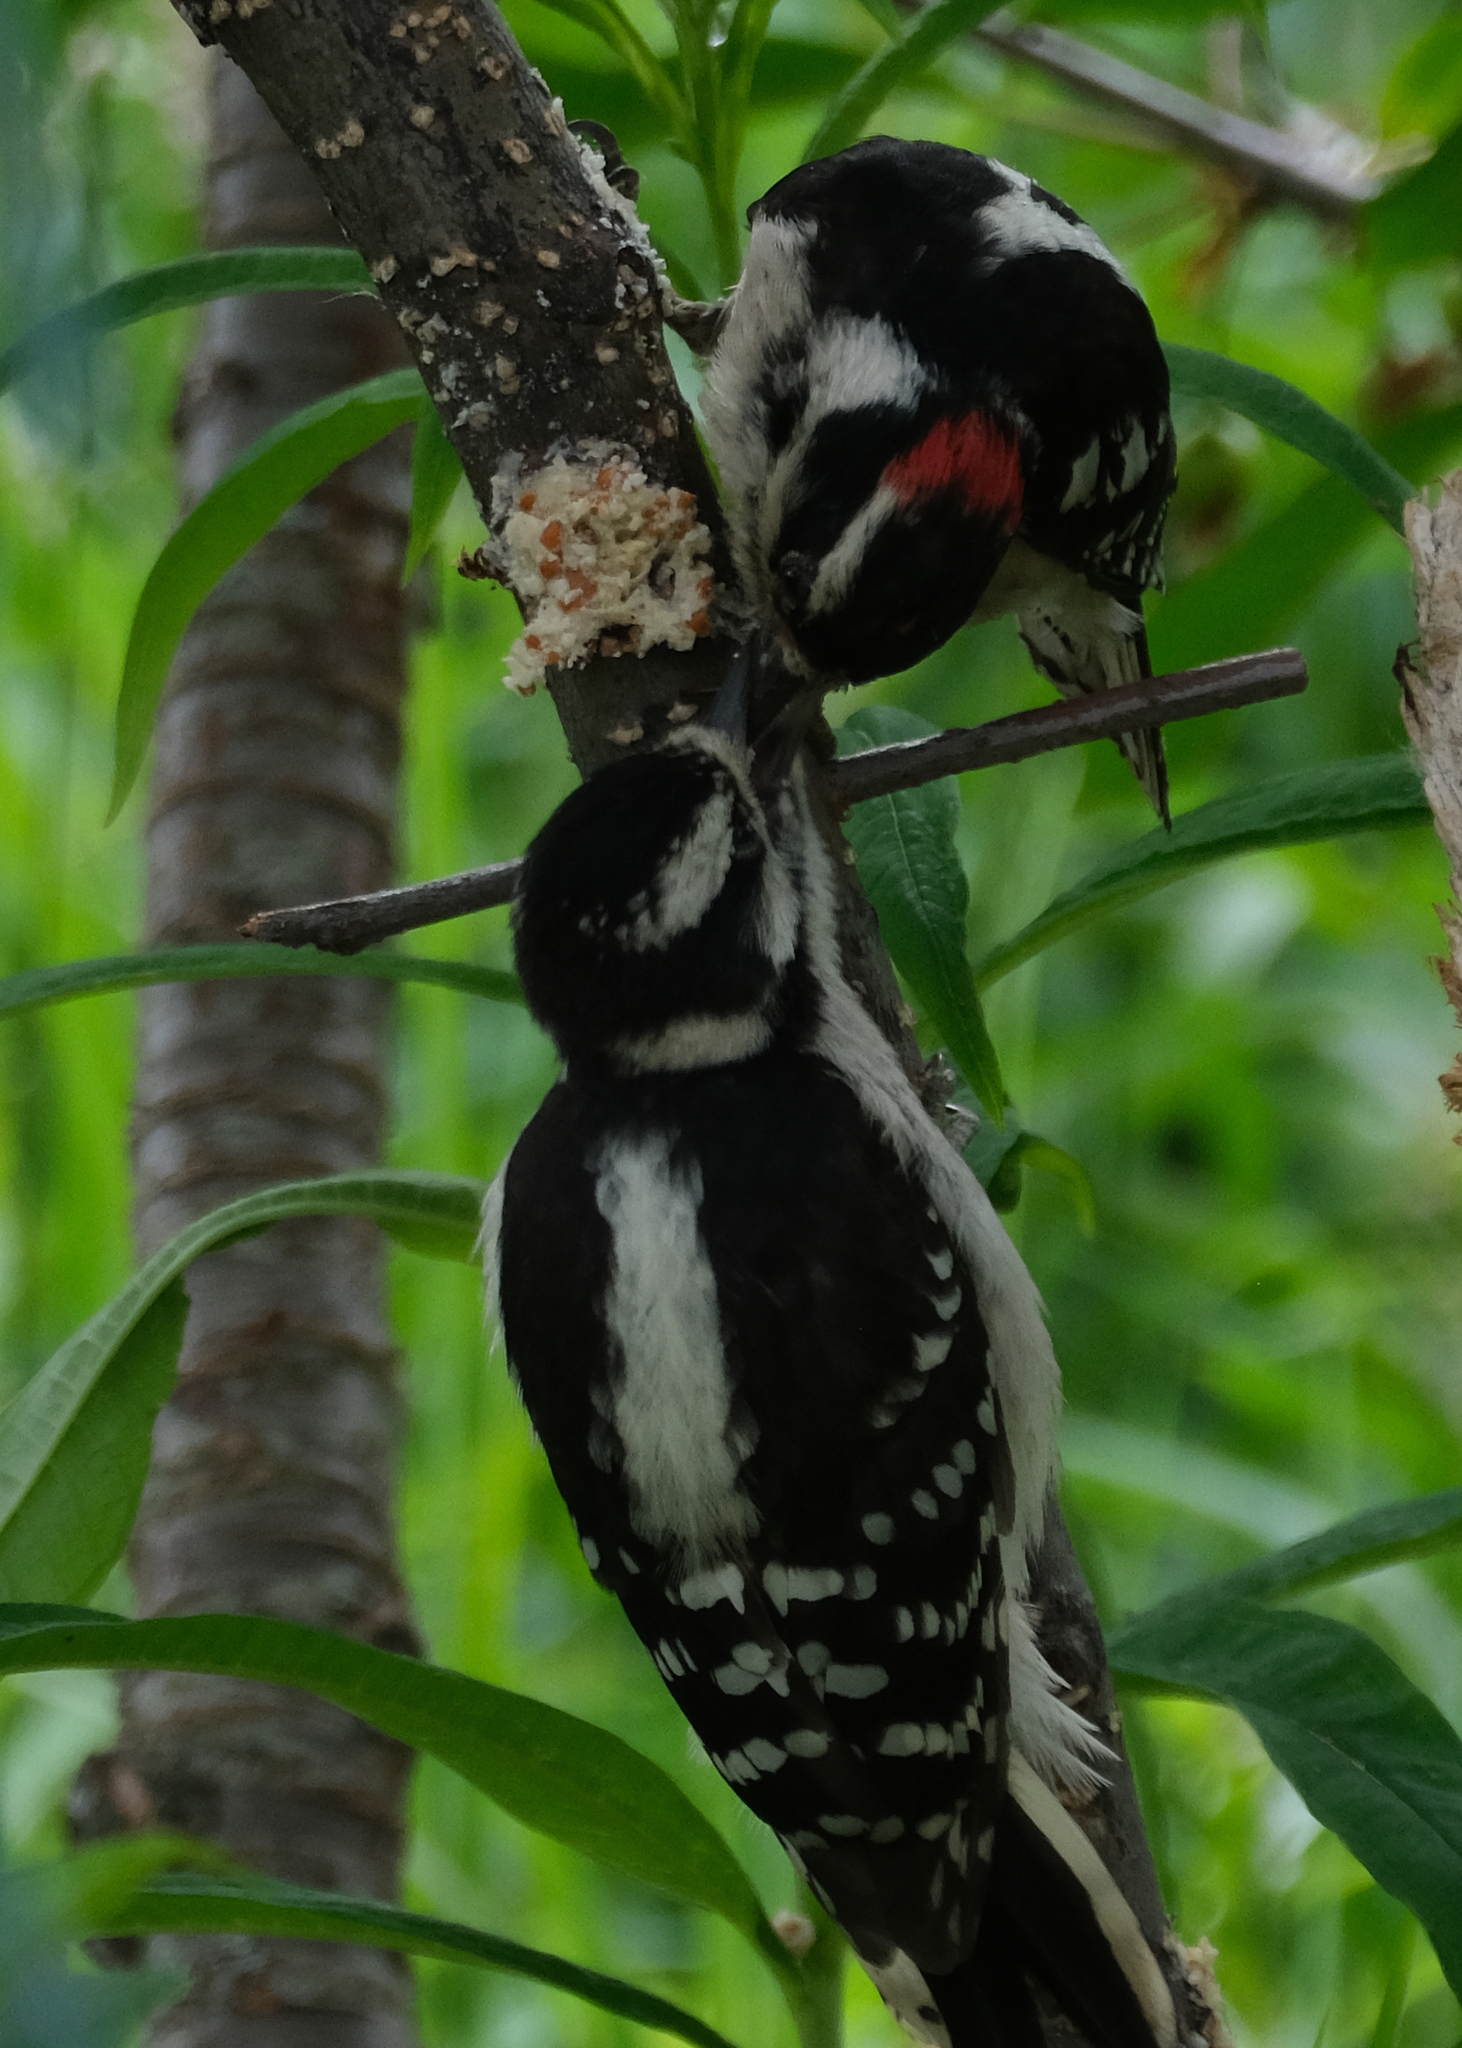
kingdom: Animalia
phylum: Chordata
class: Aves
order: Piciformes
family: Picidae
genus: Dryobates
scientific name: Dryobates pubescens
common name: Downy woodpecker
